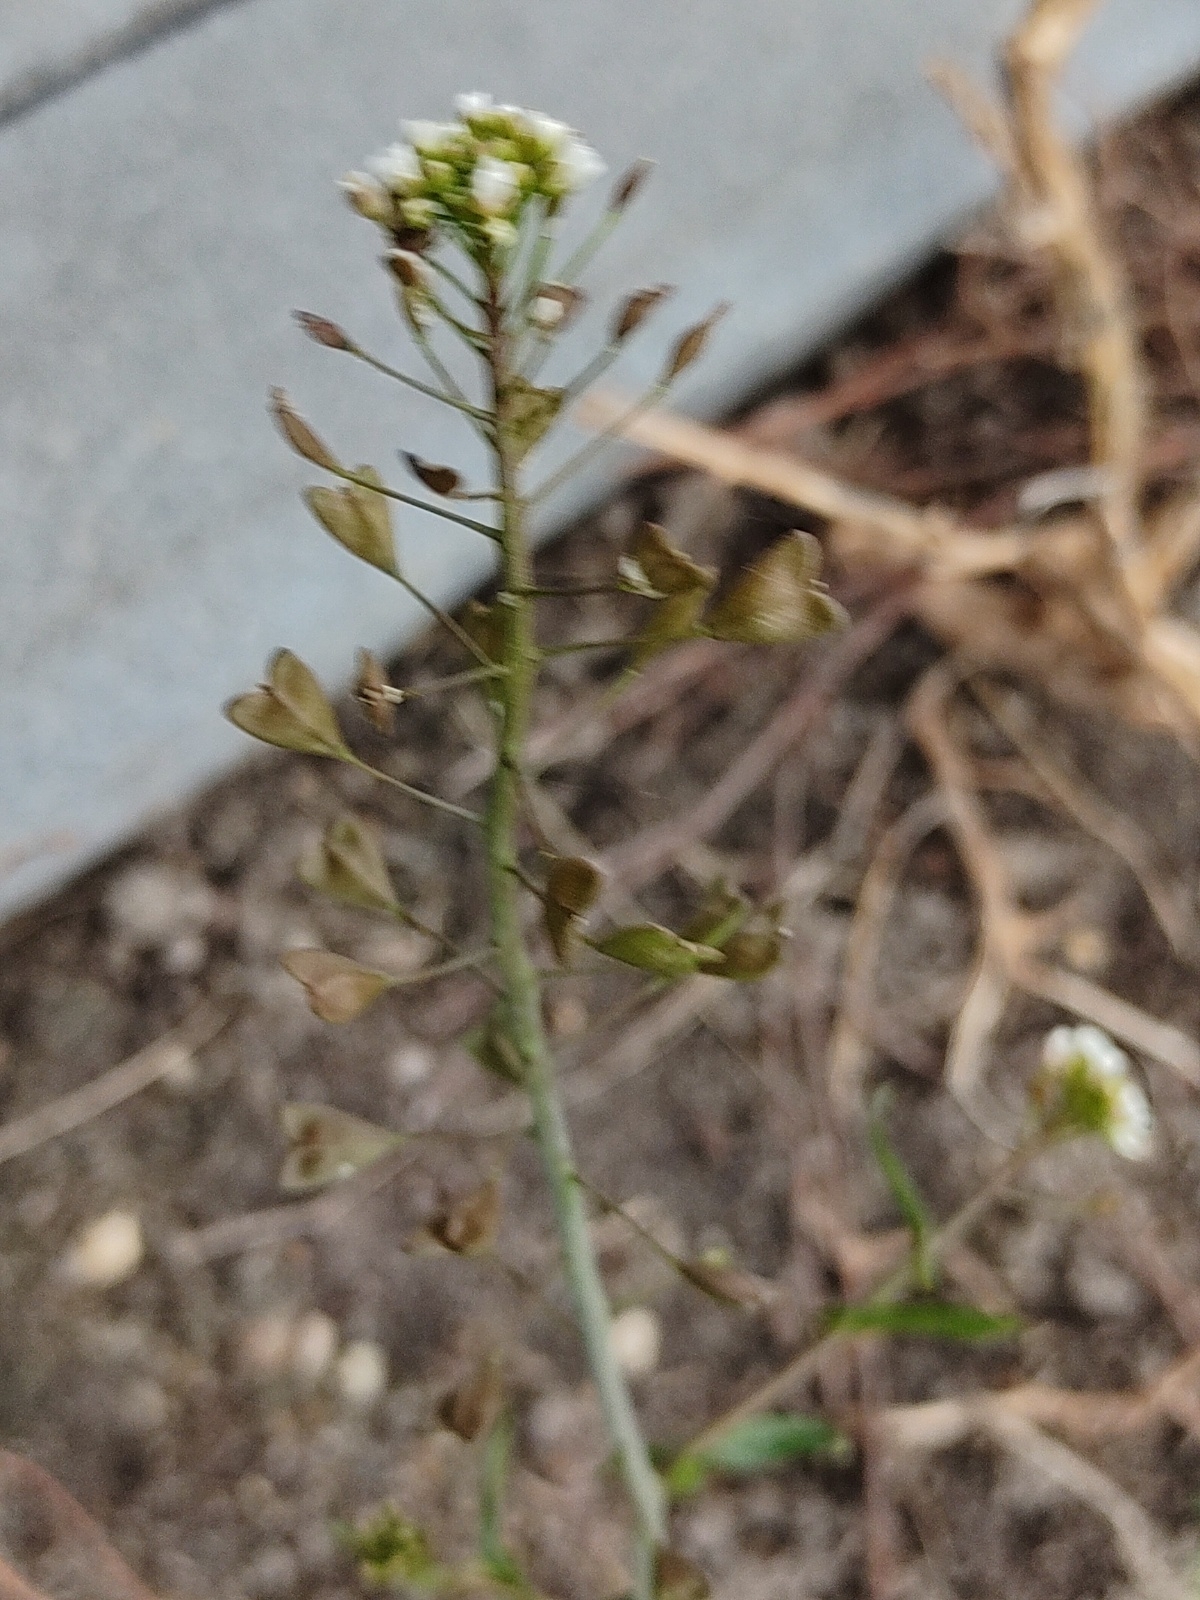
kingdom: Plantae
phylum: Tracheophyta
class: Magnoliopsida
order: Brassicales
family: Brassicaceae
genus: Capsella
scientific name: Capsella bursa-pastoris
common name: Shepherd's purse
